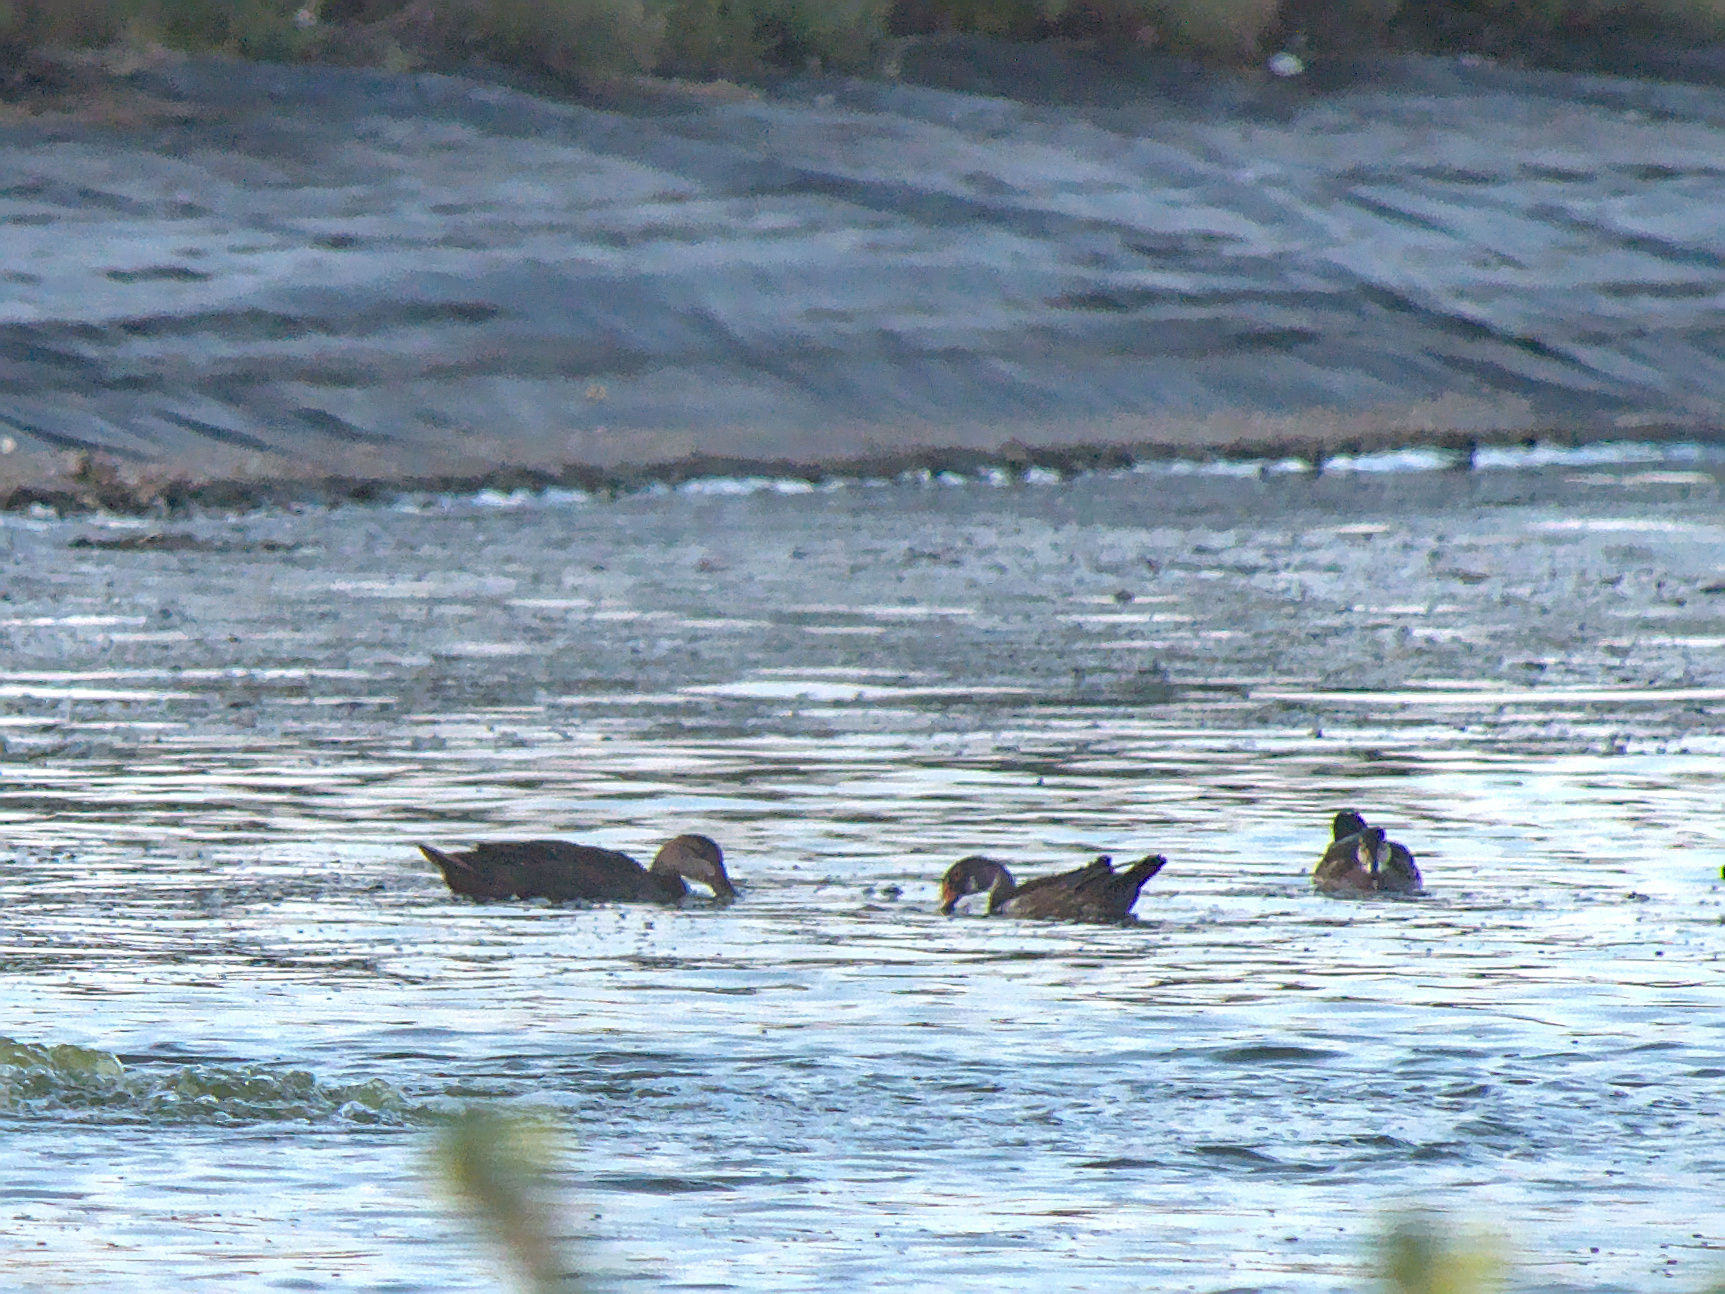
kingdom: Animalia
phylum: Chordata
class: Aves
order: Anseriformes
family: Anatidae
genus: Anas
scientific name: Anas rubripes
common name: American black duck
